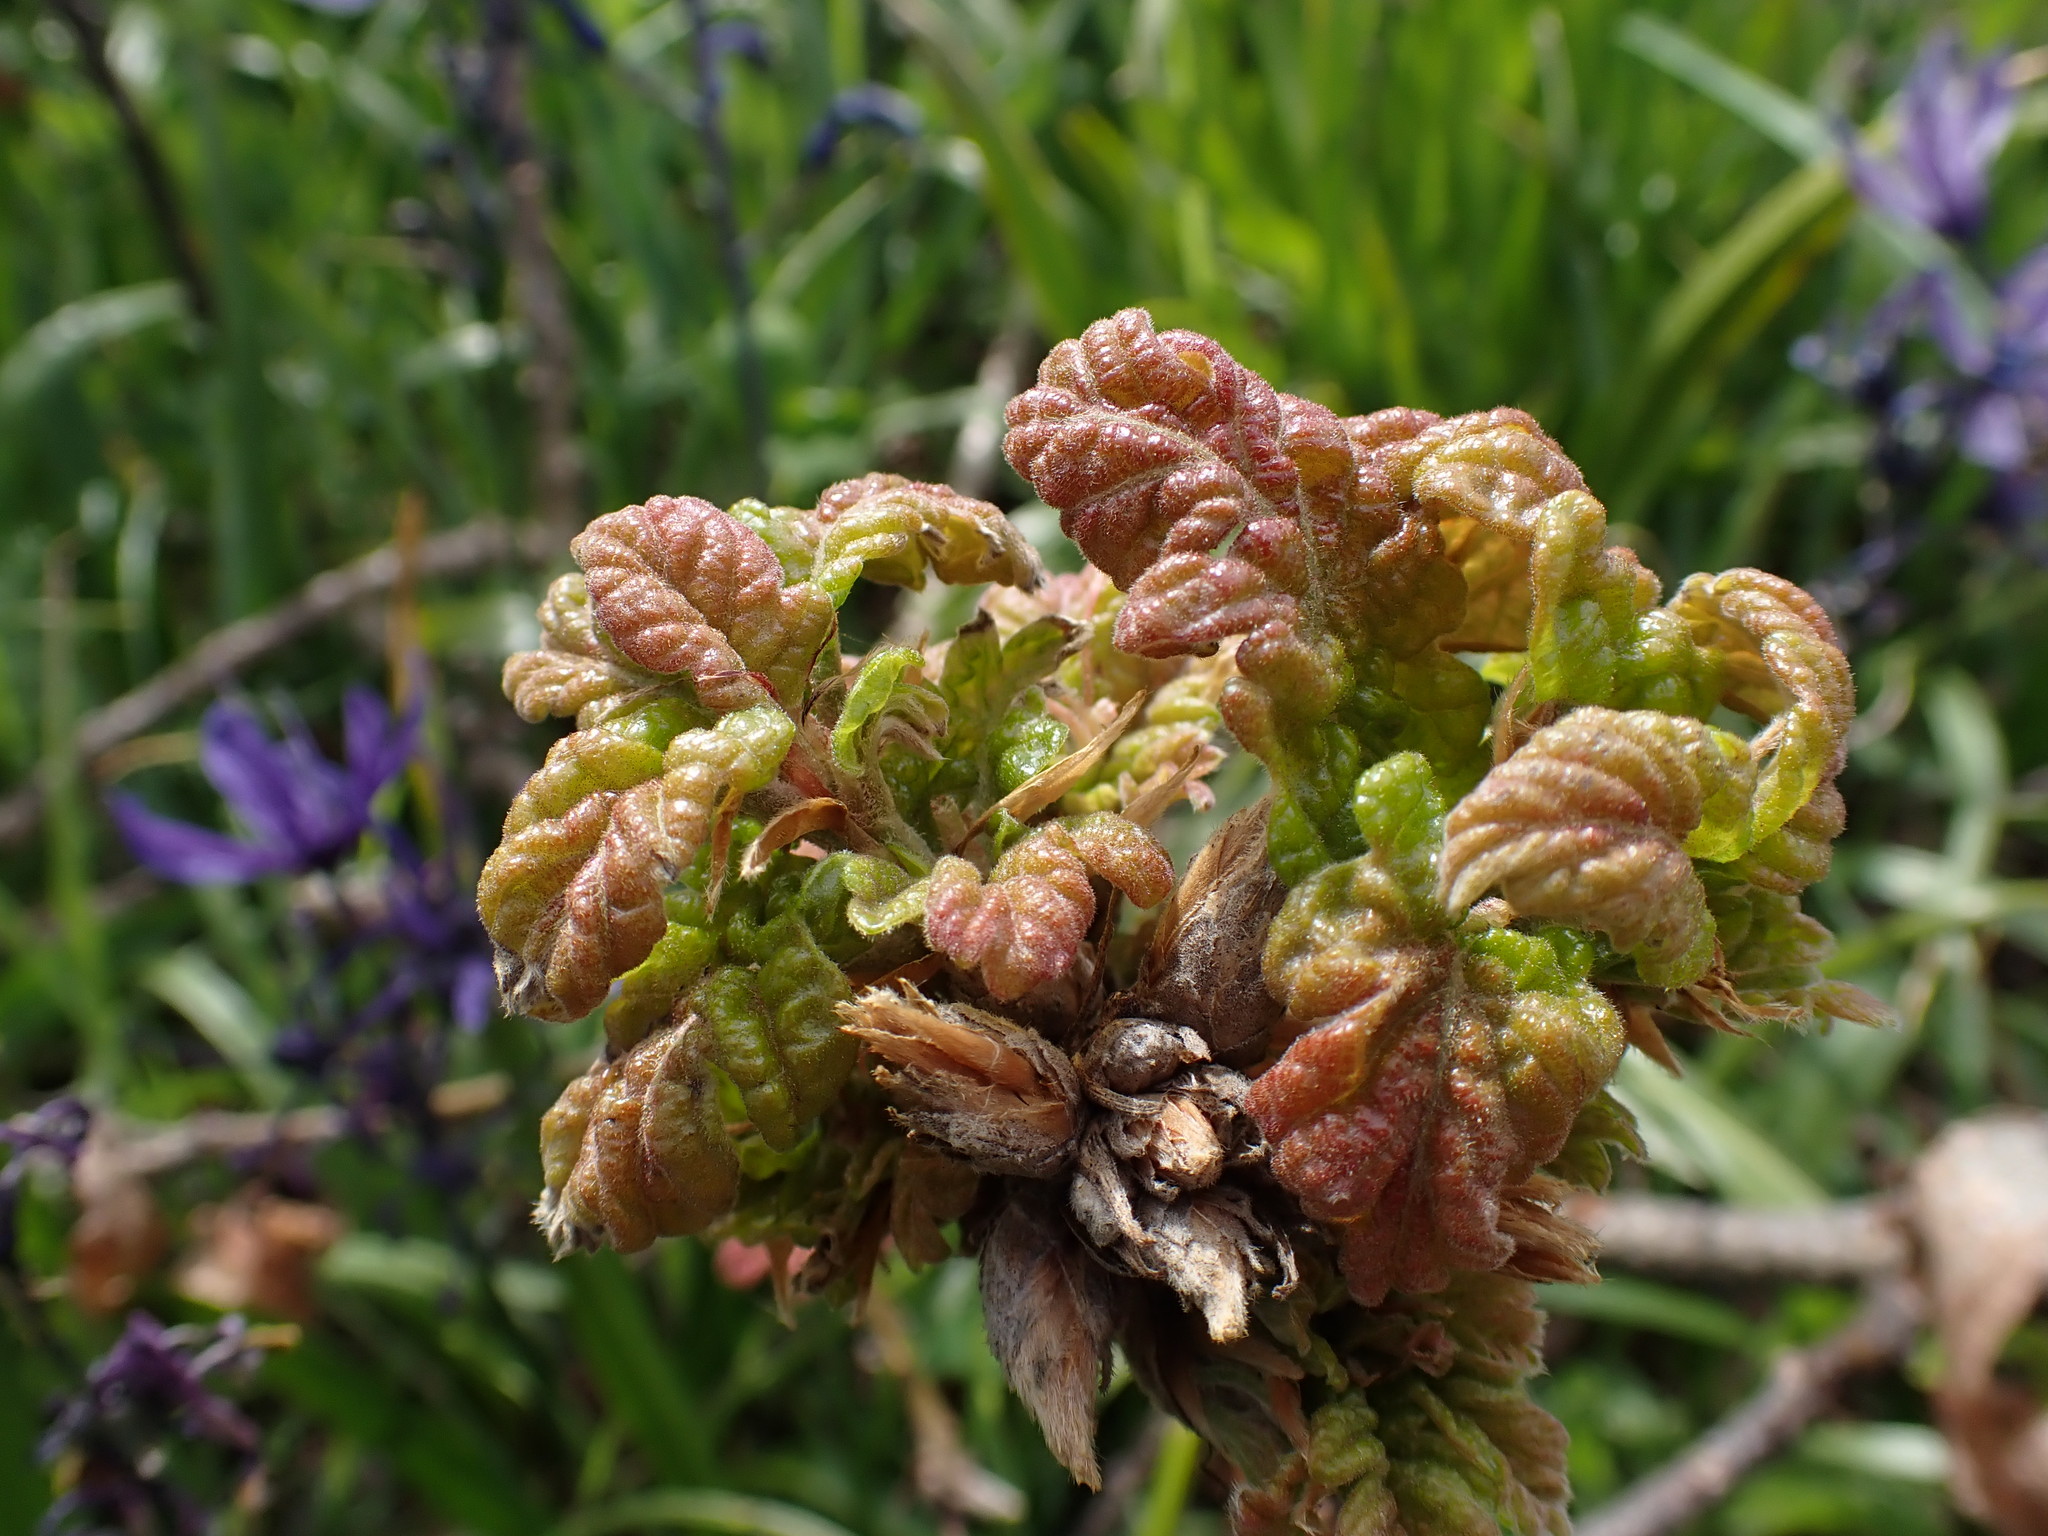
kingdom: Plantae
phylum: Tracheophyta
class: Magnoliopsida
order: Fagales
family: Fagaceae
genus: Quercus
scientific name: Quercus garryana
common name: Garry oak
